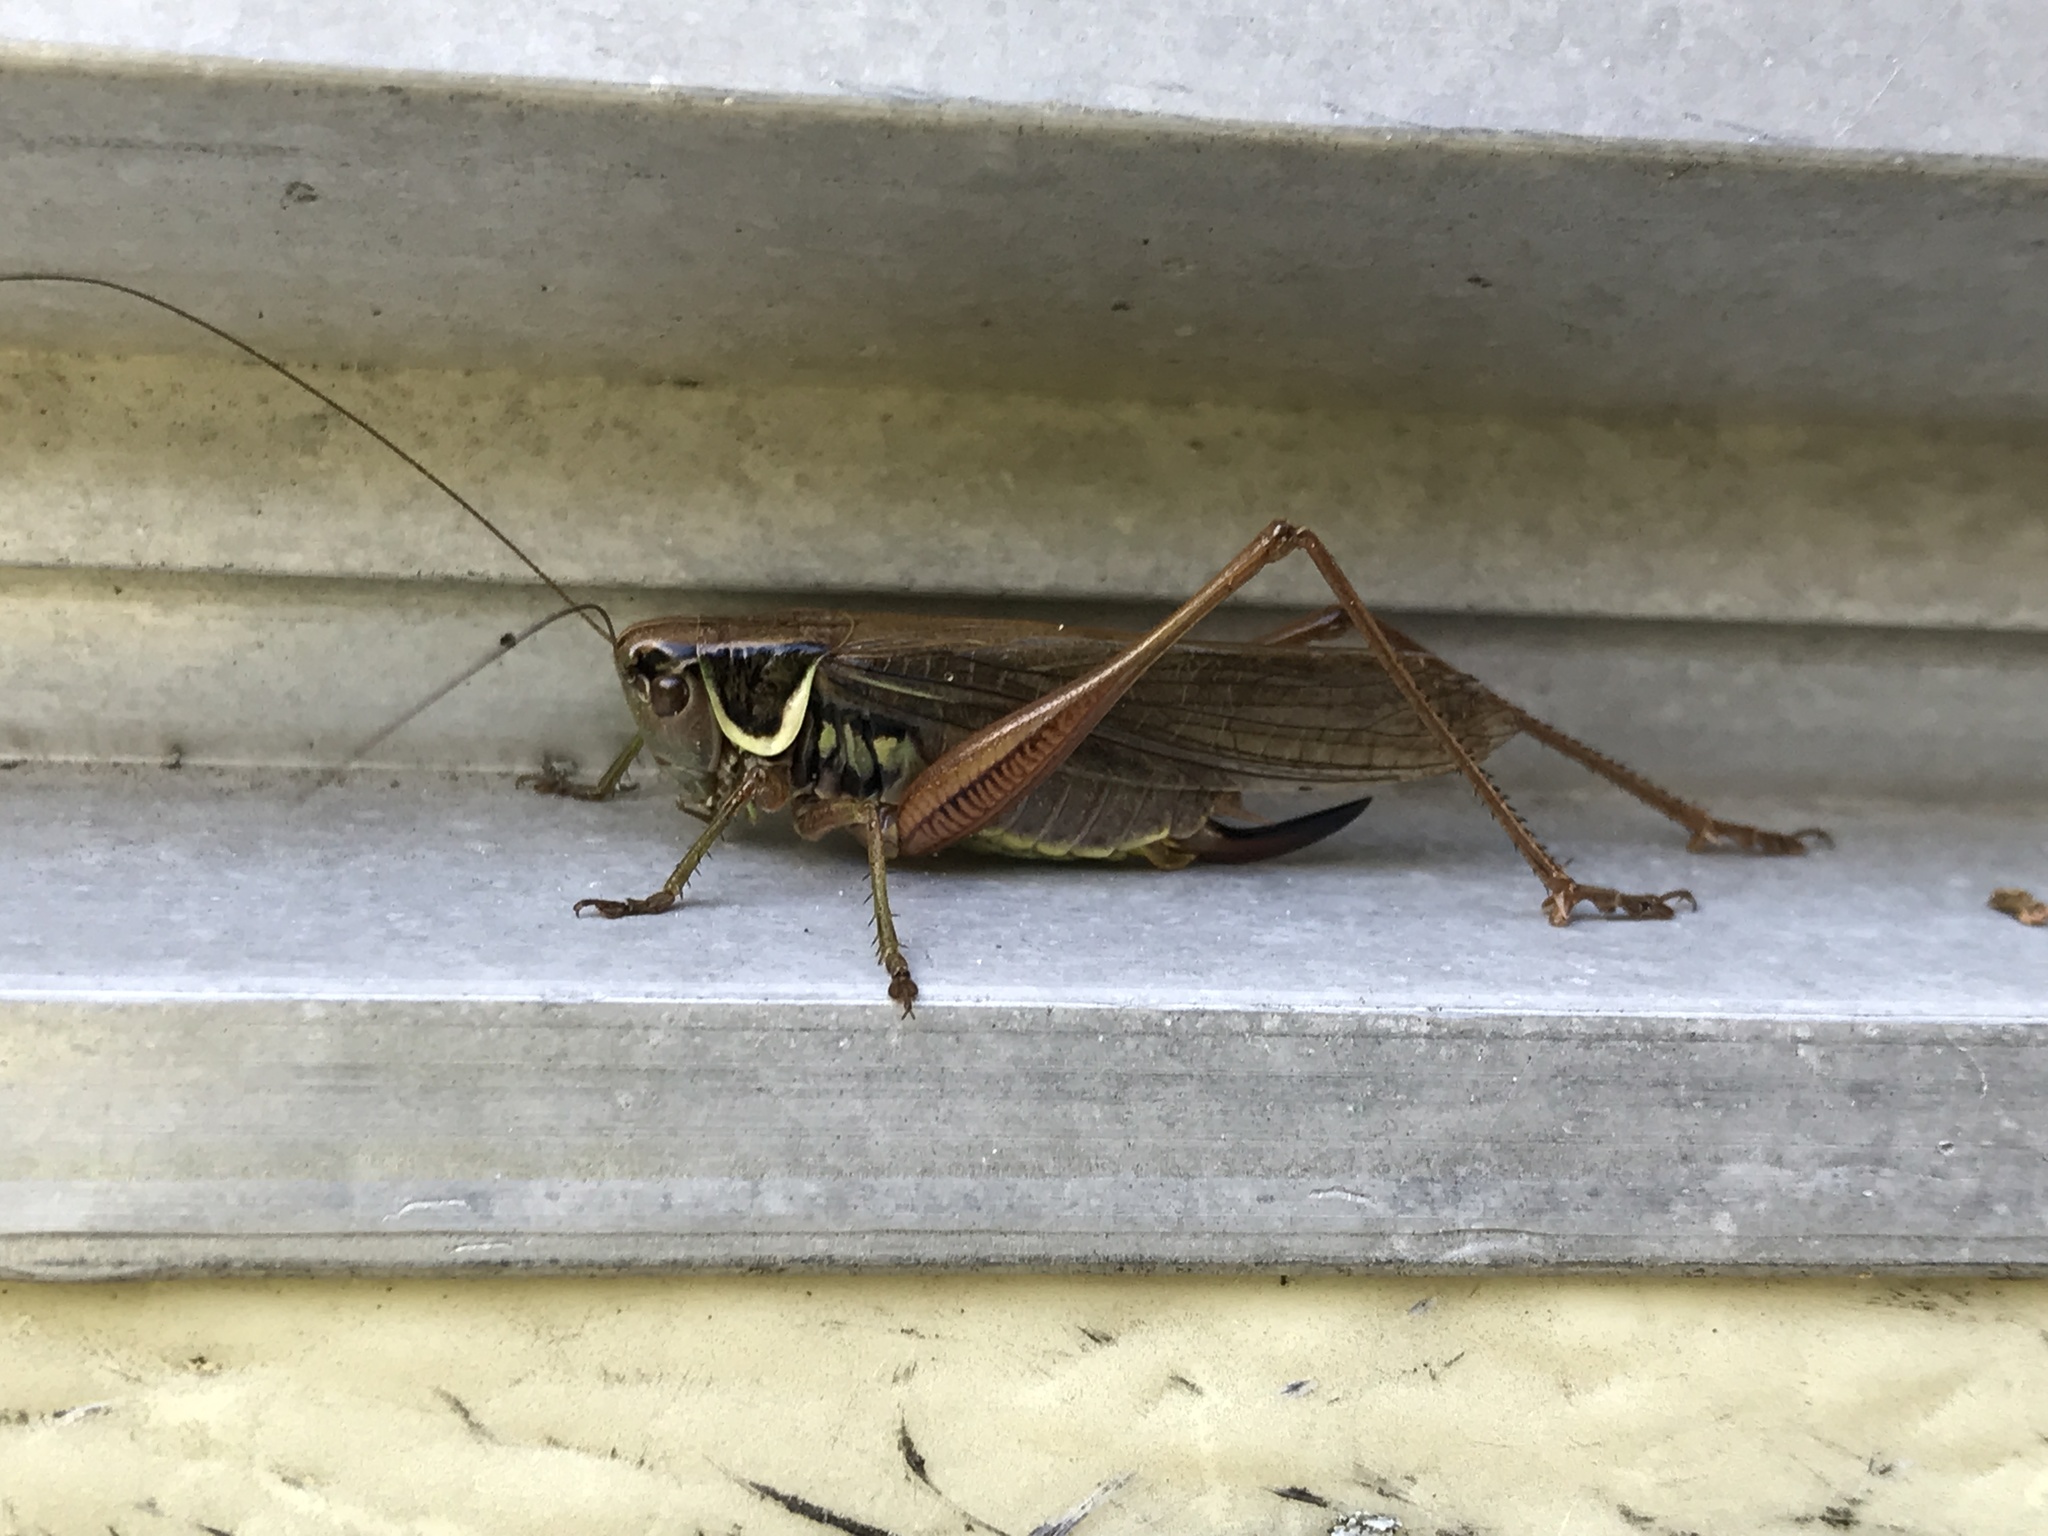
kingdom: Animalia
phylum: Arthropoda
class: Insecta
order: Orthoptera
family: Tettigoniidae
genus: Roeseliana
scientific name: Roeseliana roeselii
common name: Roesel's bush cricket
